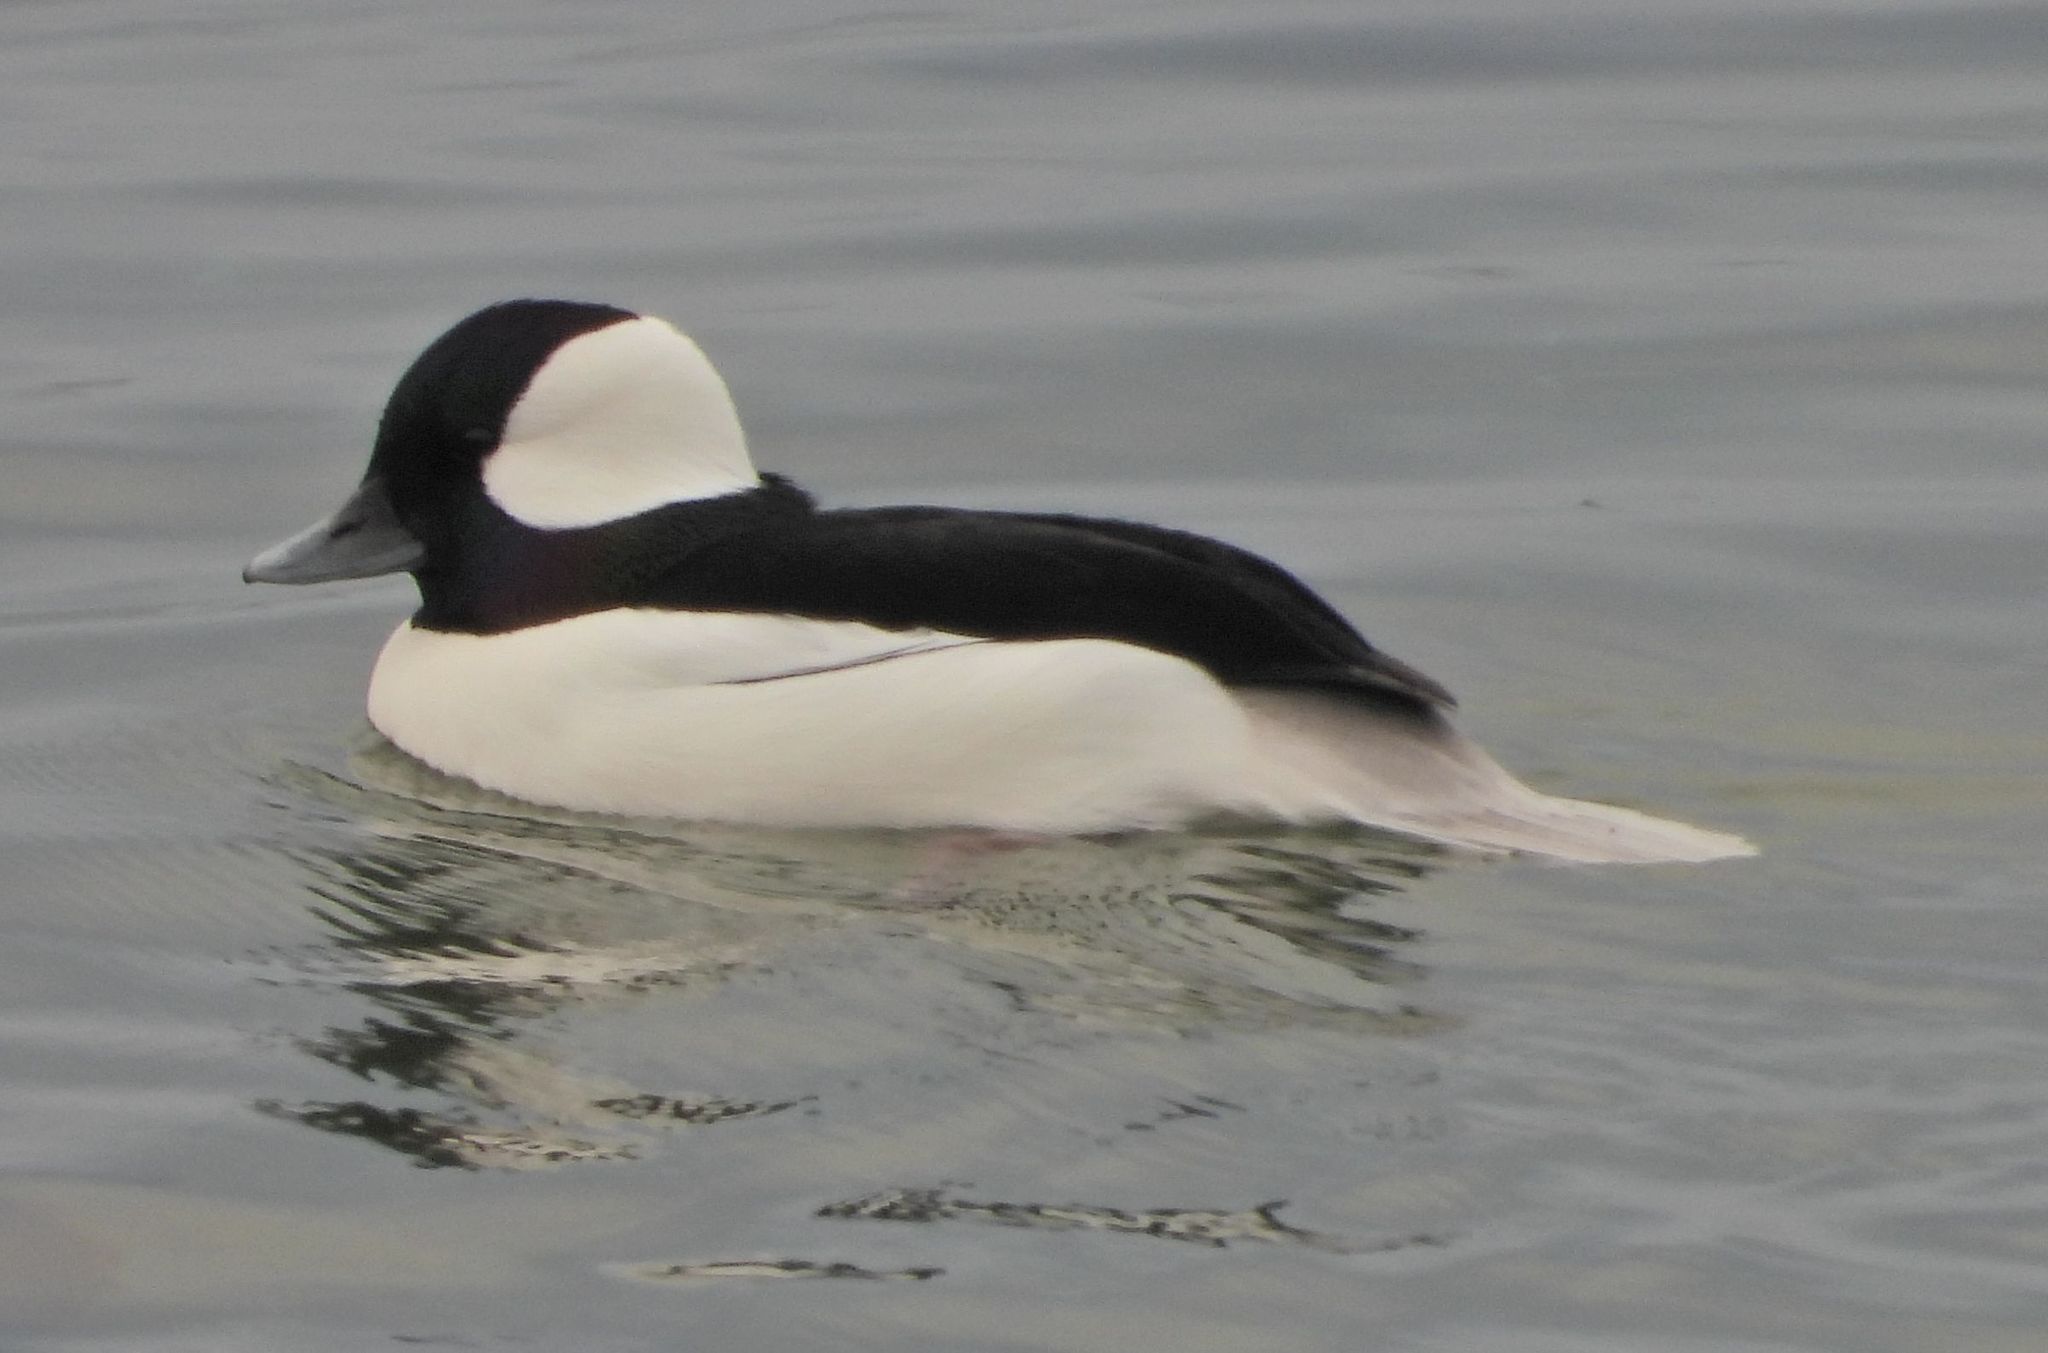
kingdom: Animalia
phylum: Chordata
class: Aves
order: Anseriformes
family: Anatidae
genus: Bucephala
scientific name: Bucephala albeola
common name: Bufflehead
